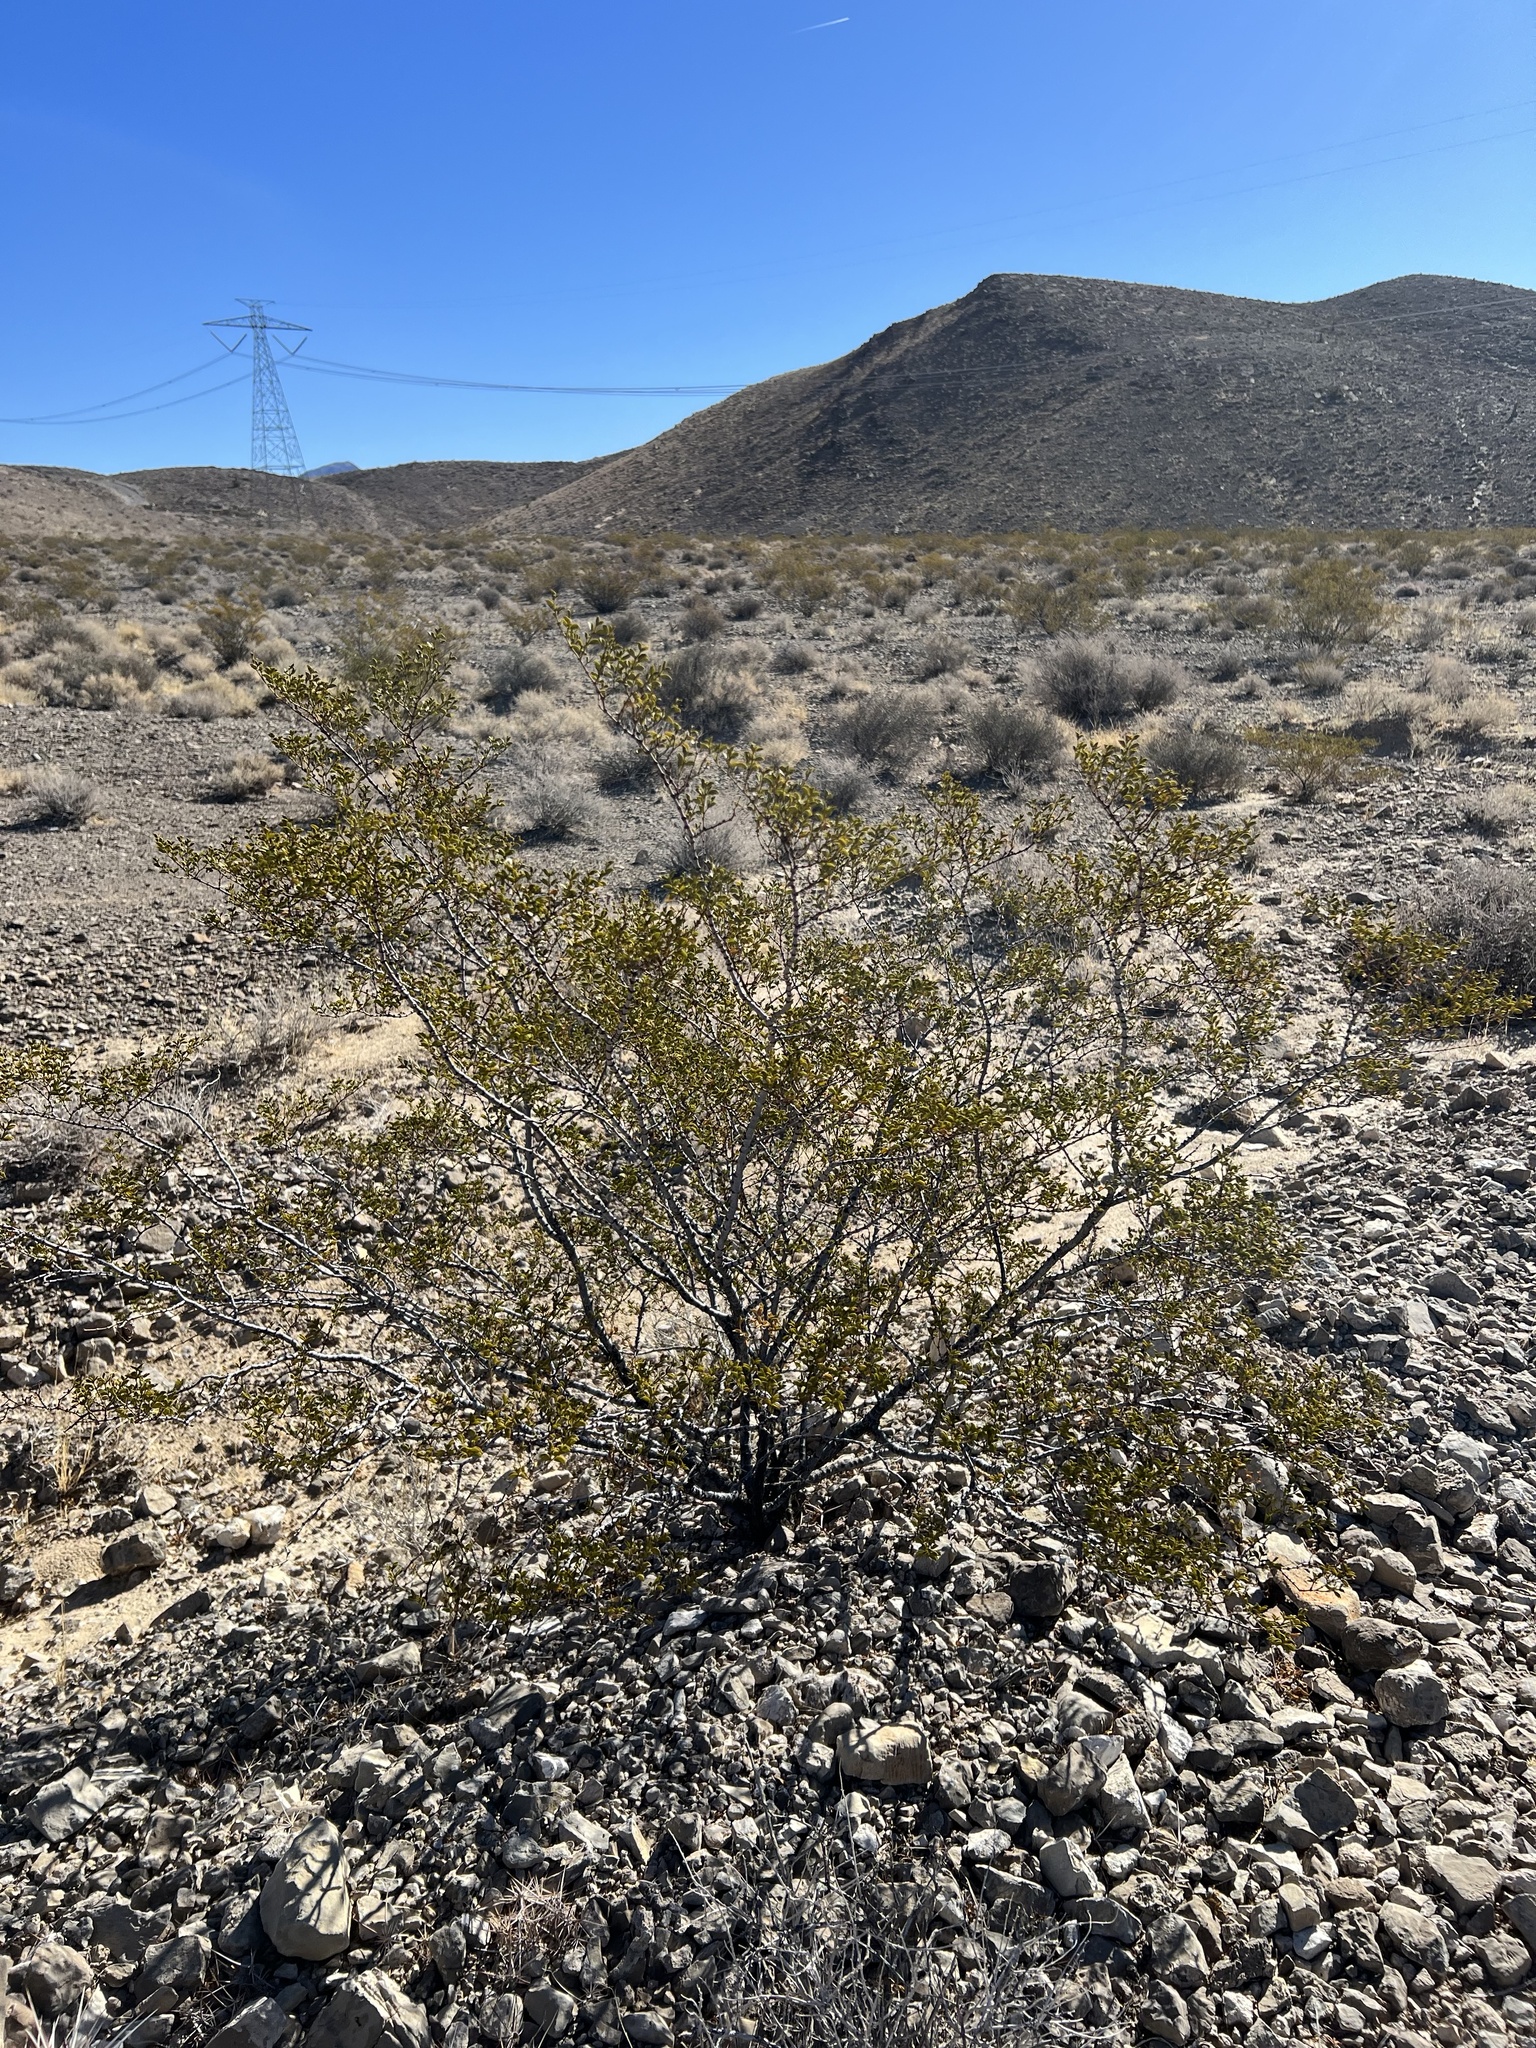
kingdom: Plantae
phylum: Tracheophyta
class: Magnoliopsida
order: Zygophyllales
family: Zygophyllaceae
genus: Larrea
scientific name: Larrea tridentata
